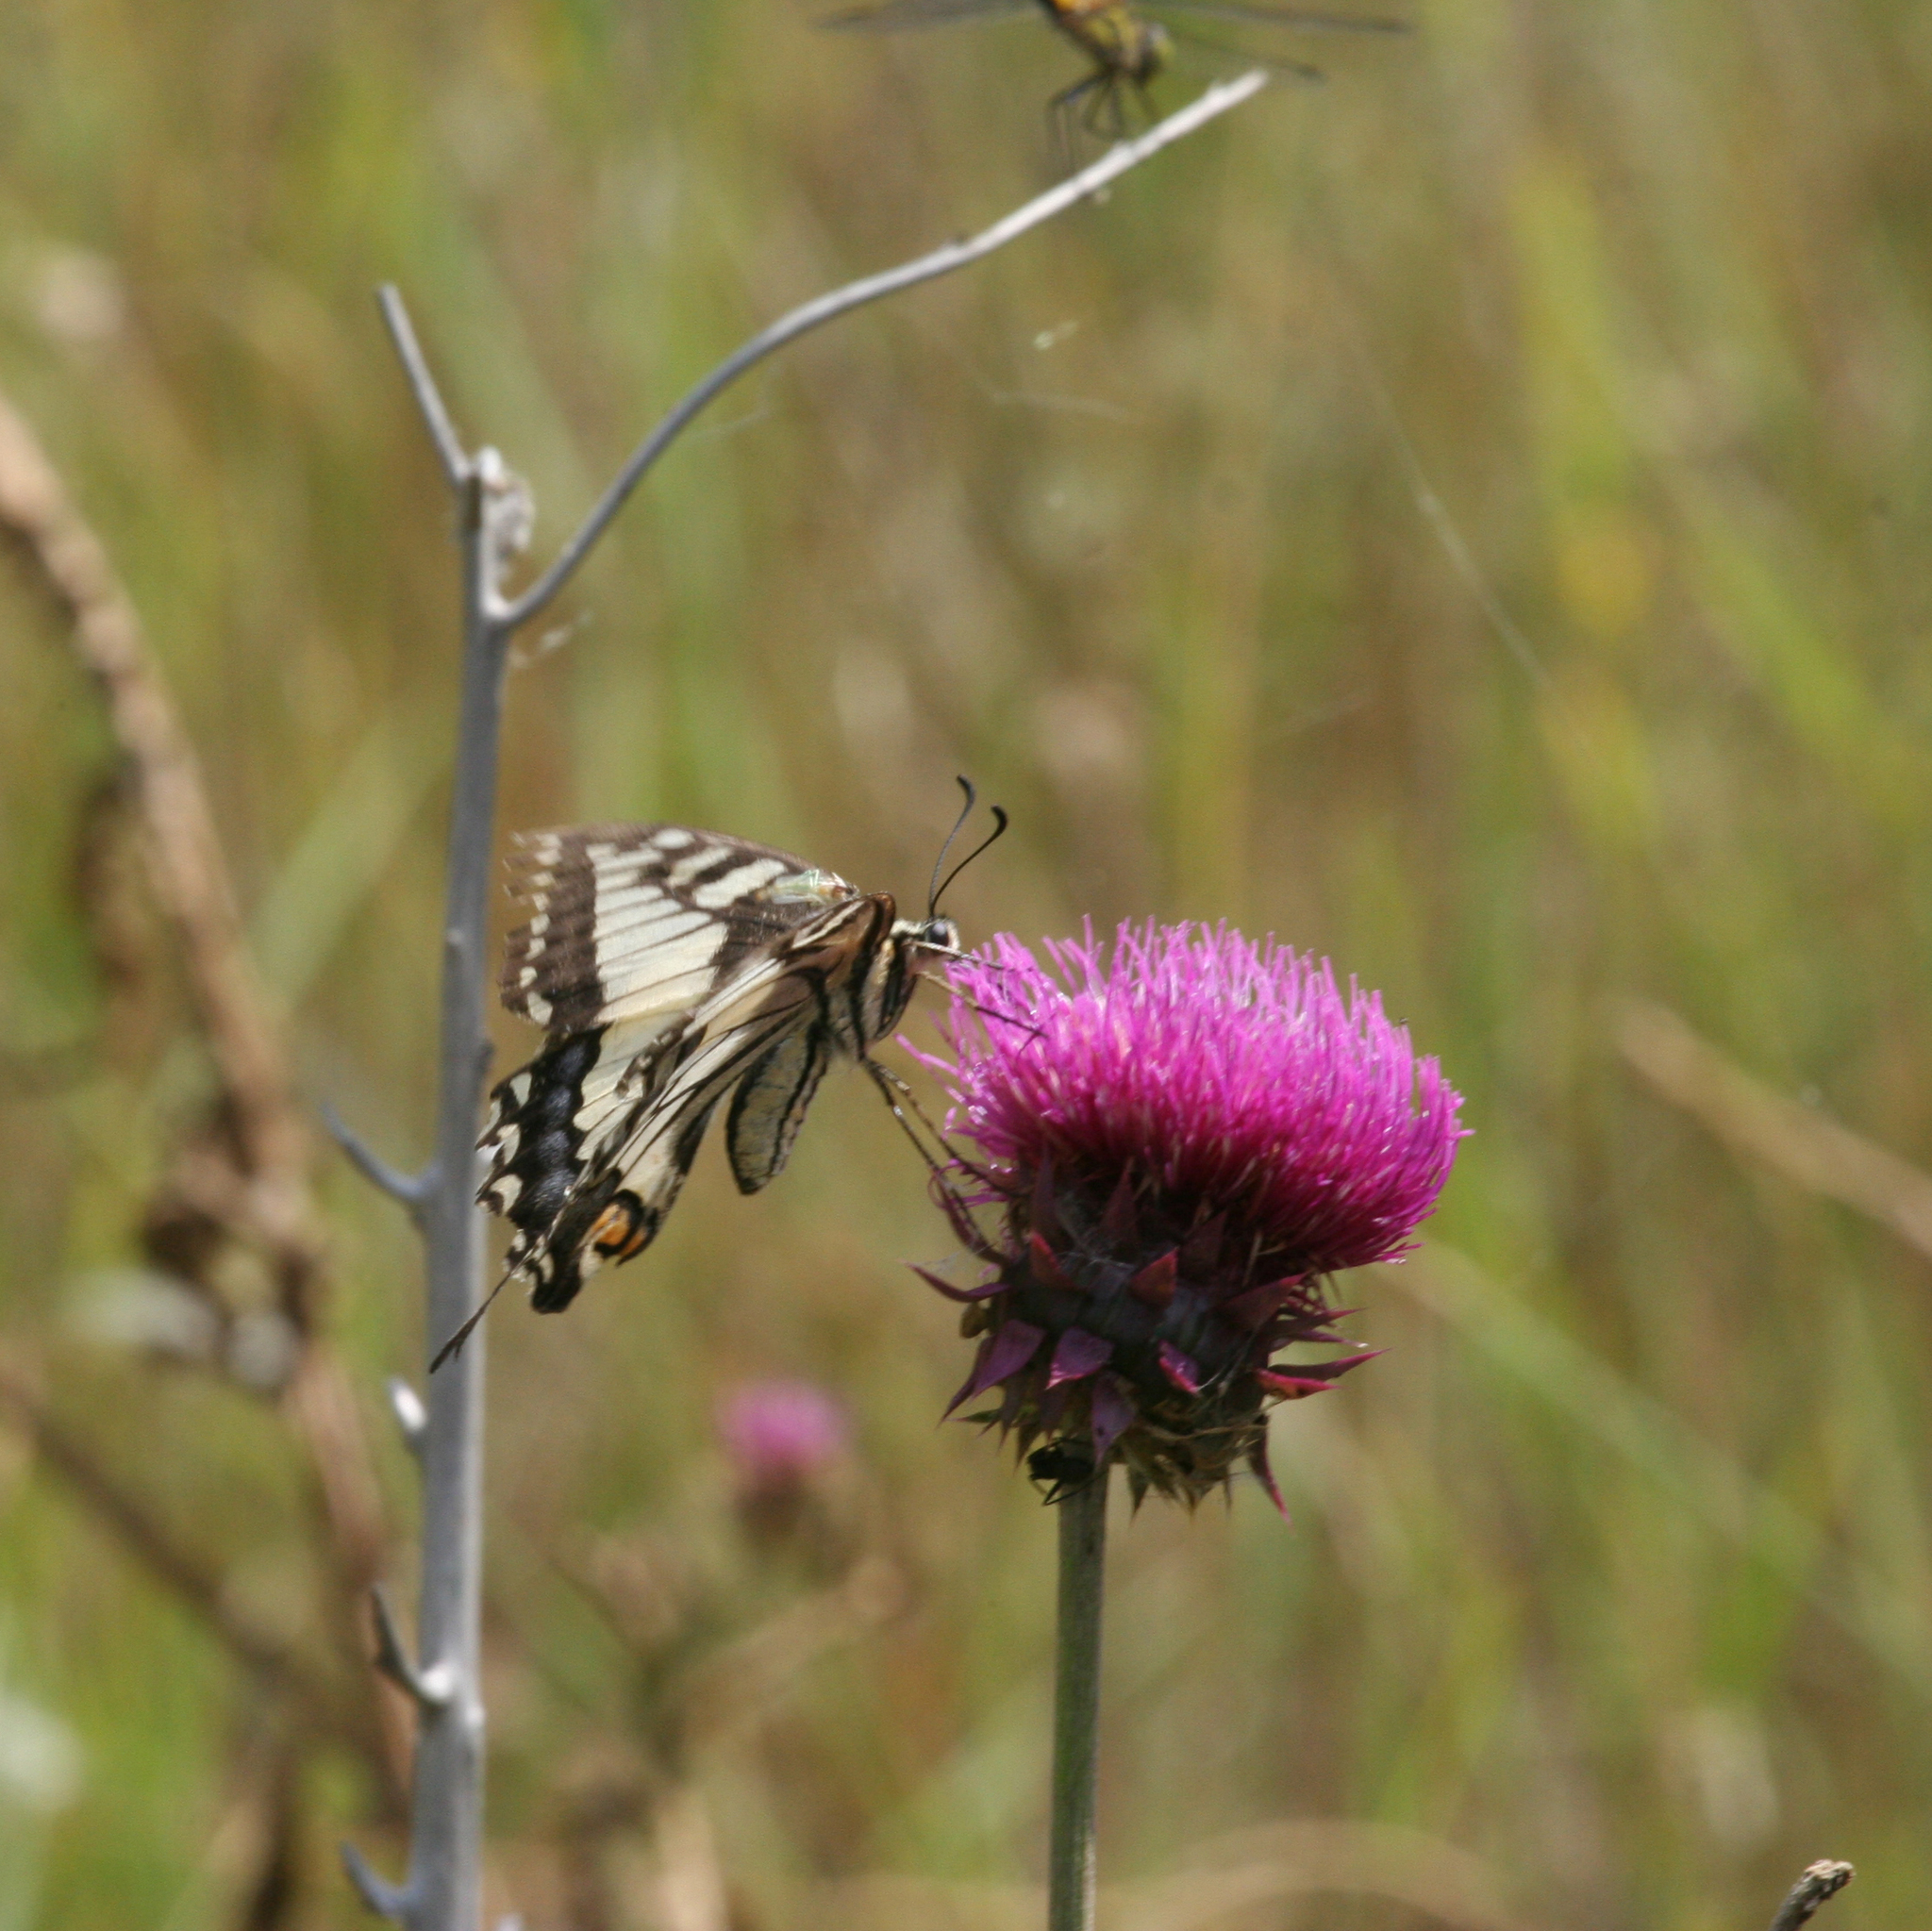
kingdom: Animalia
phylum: Arthropoda
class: Insecta
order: Lepidoptera
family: Papilionidae
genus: Papilio
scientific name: Papilio machaon
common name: Swallowtail
